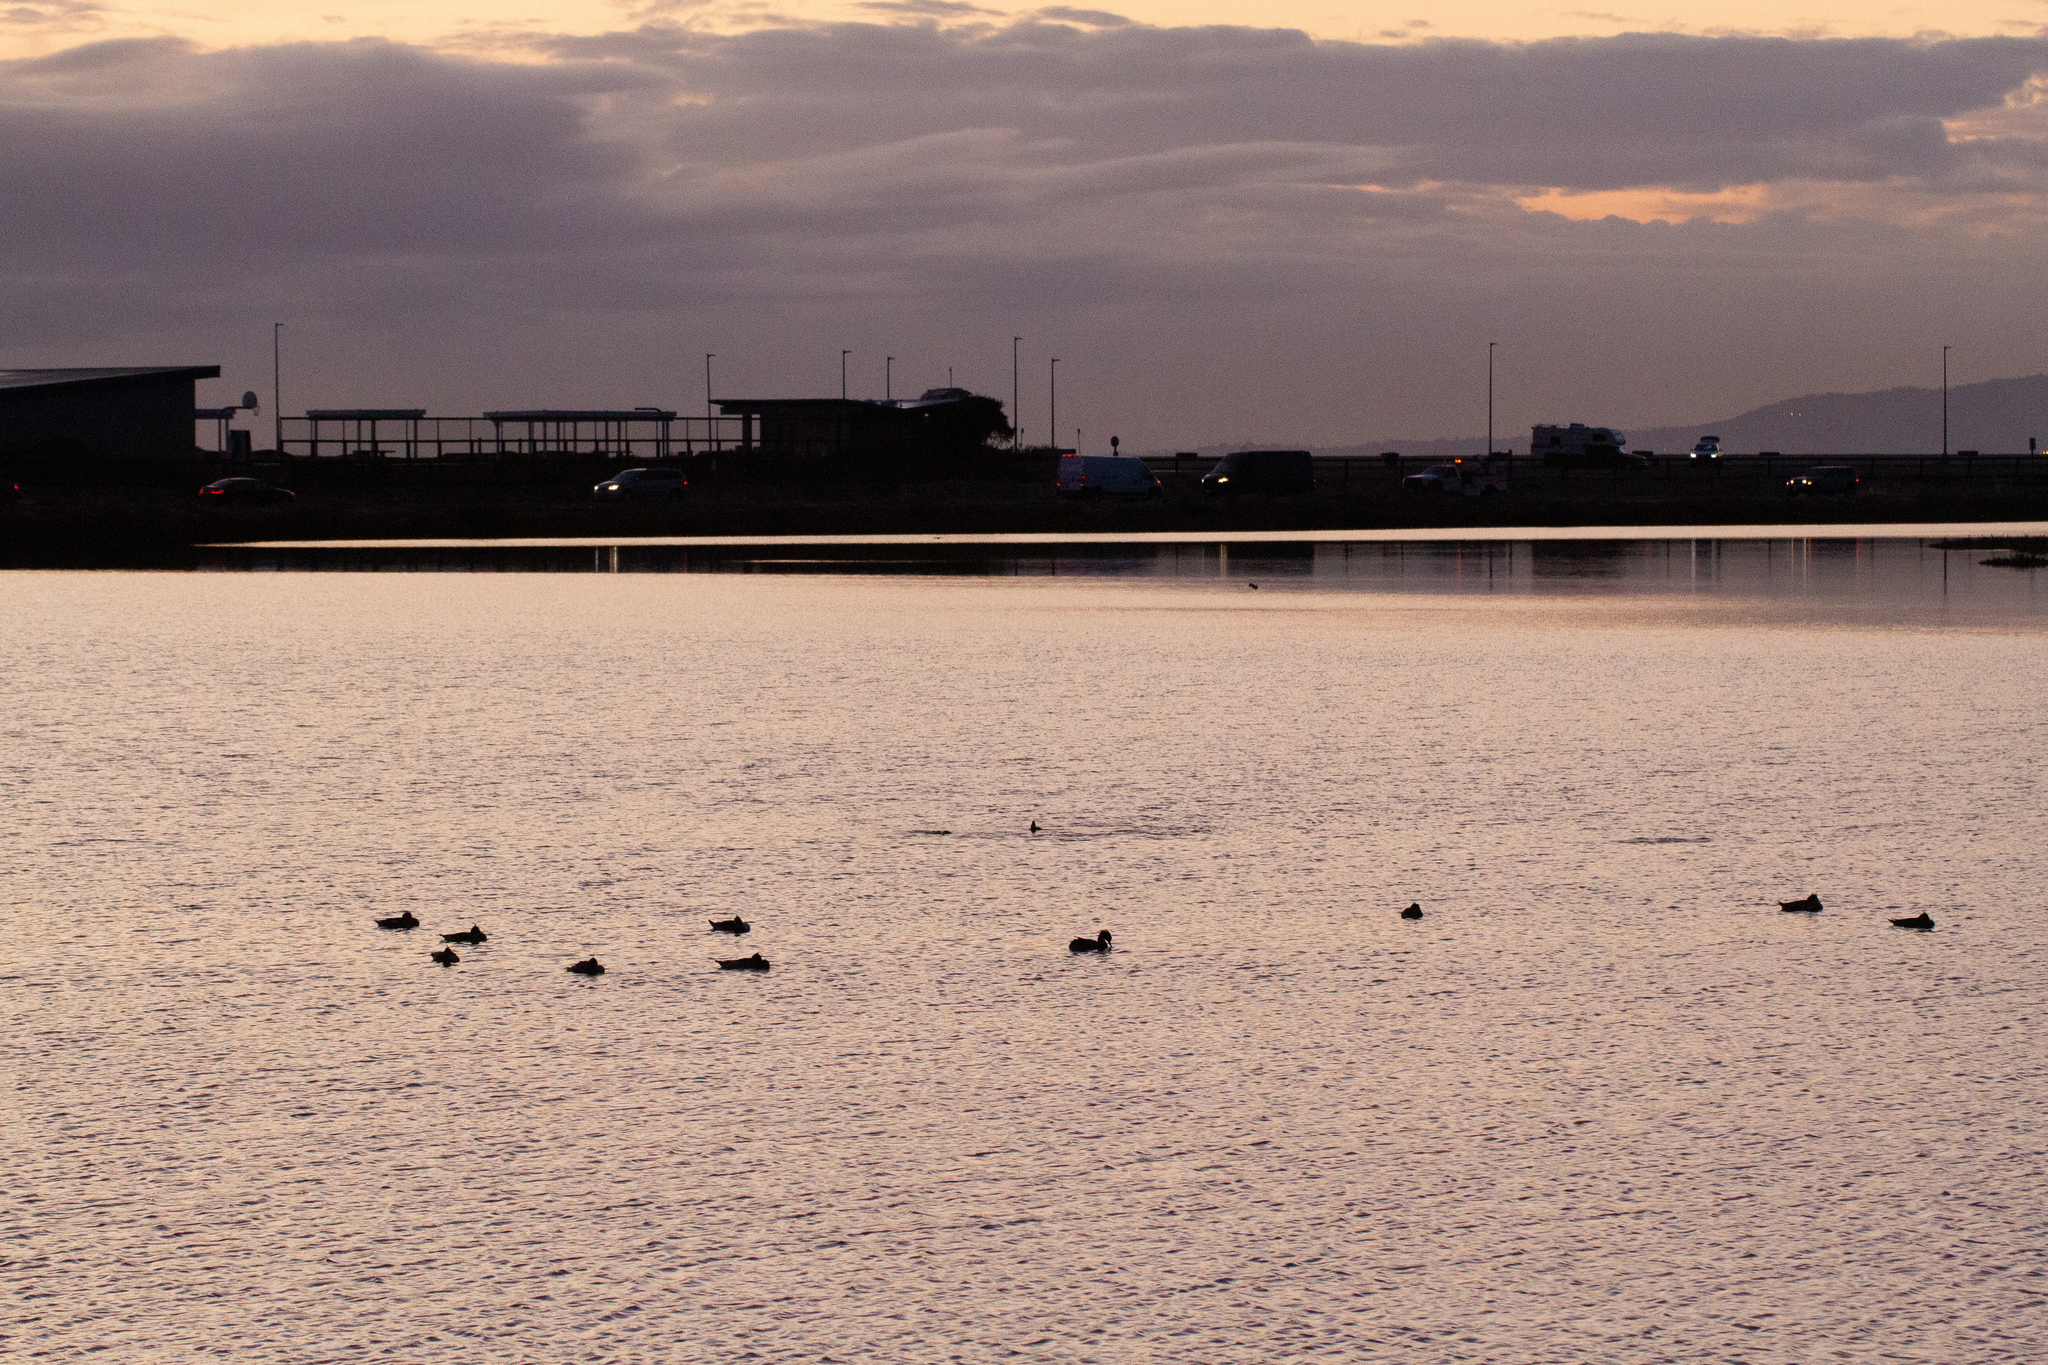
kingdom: Animalia
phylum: Chordata
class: Aves
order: Anseriformes
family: Anatidae
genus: Mergus
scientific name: Mergus serrator
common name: Red-breasted merganser
